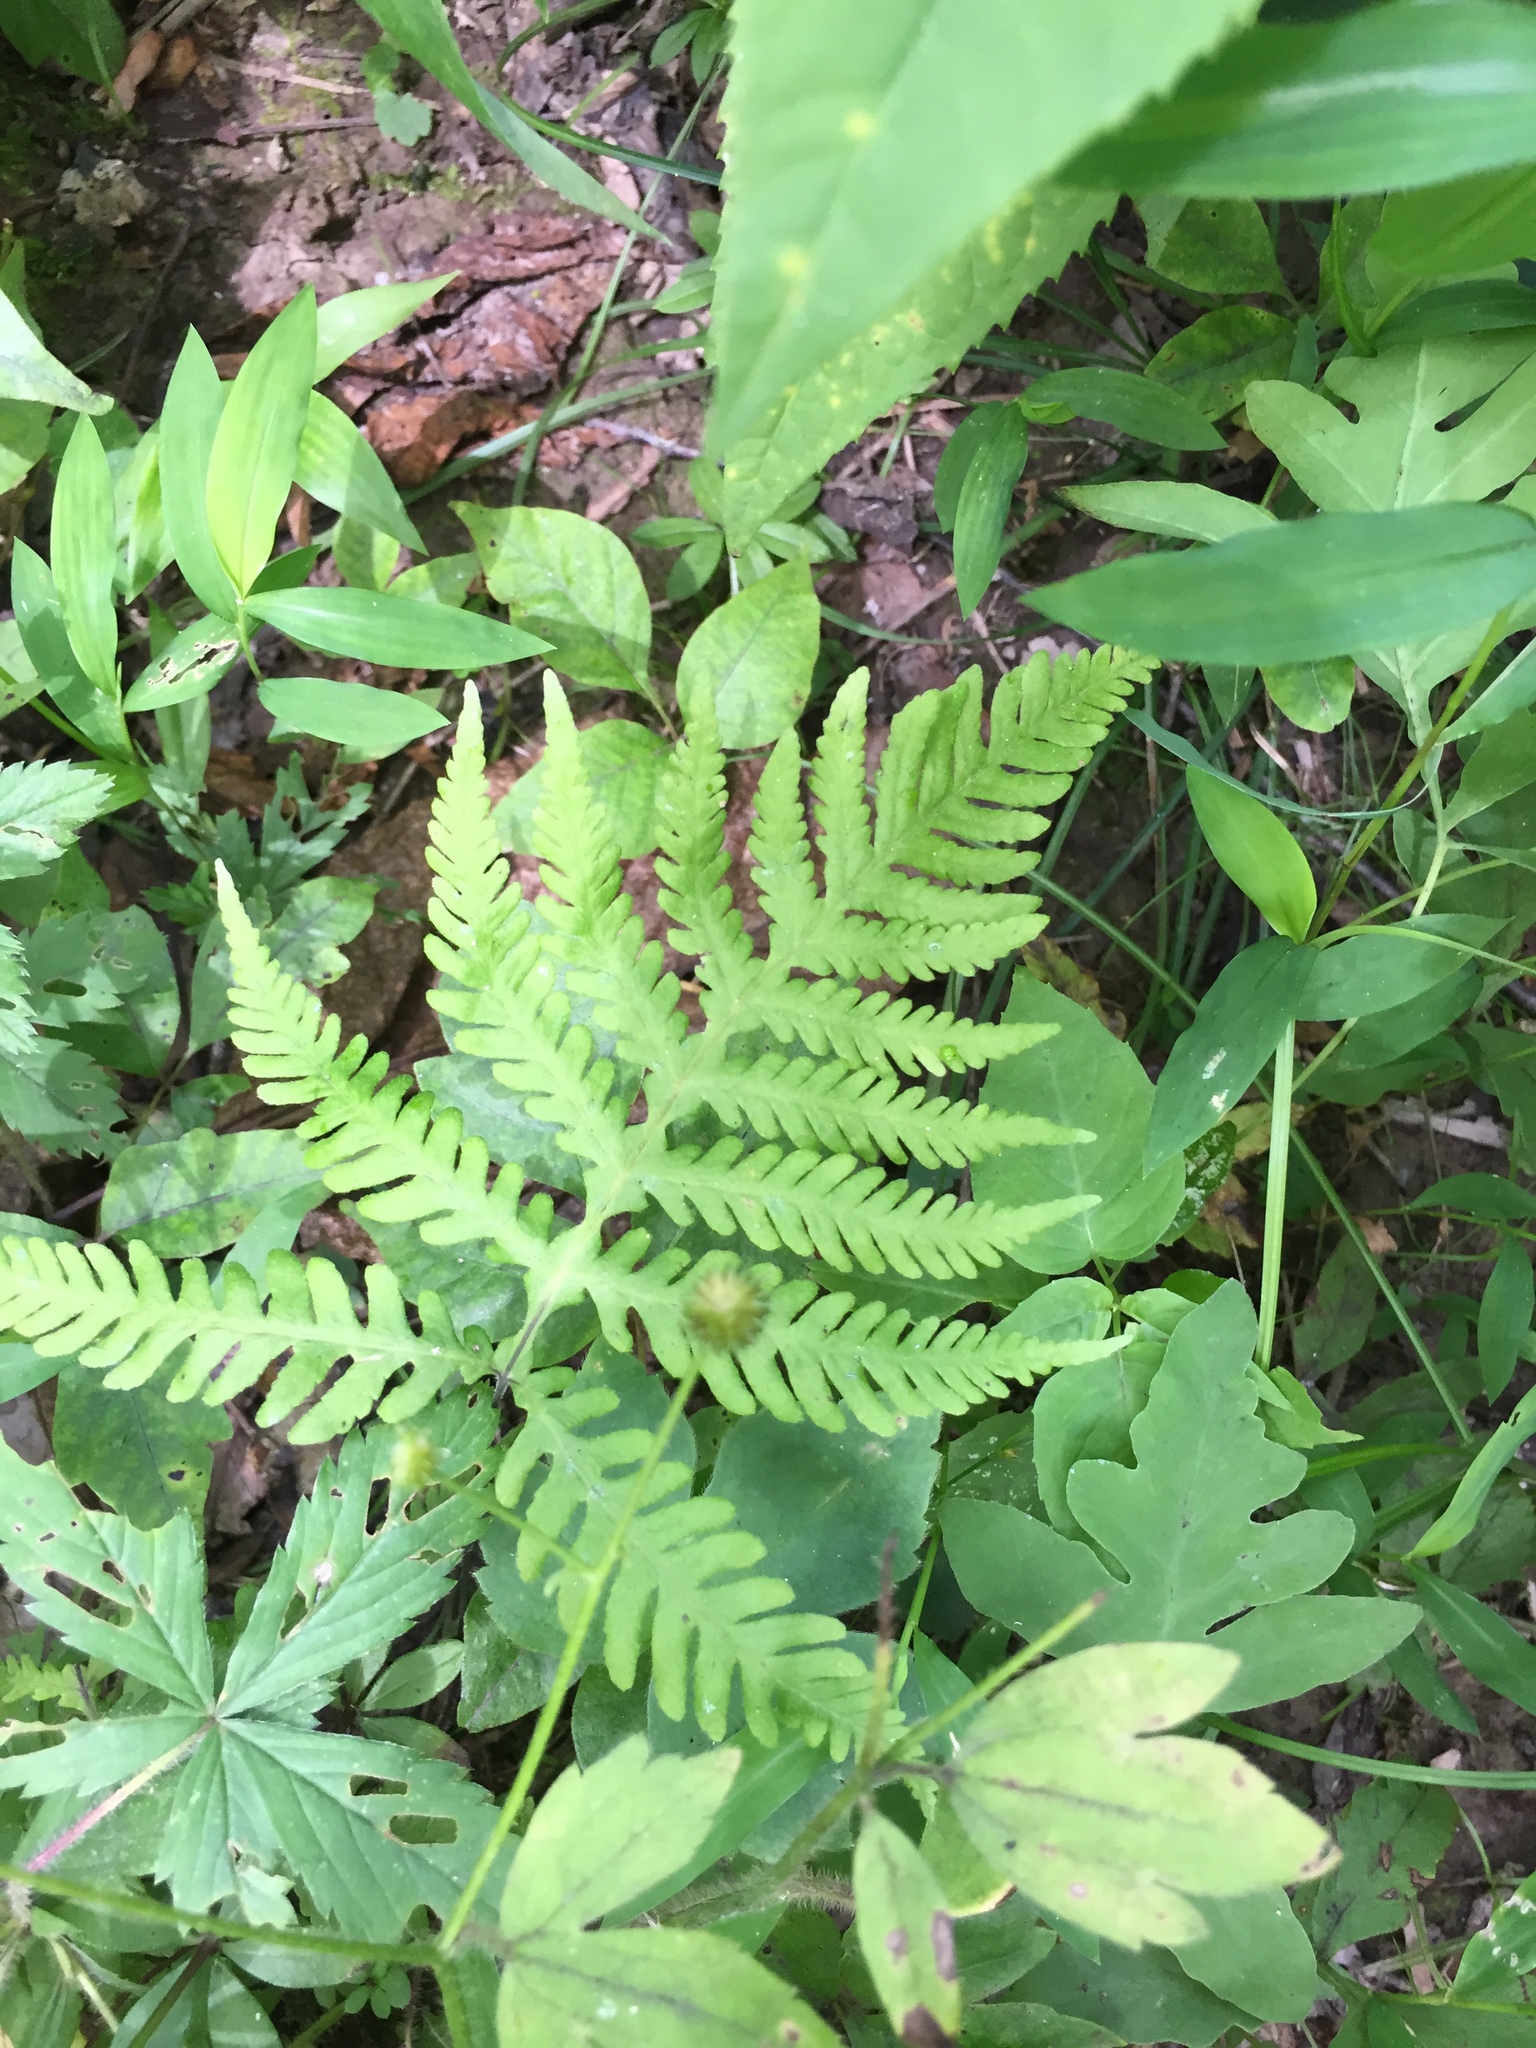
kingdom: Plantae
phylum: Tracheophyta
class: Polypodiopsida
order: Polypodiales
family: Thelypteridaceae
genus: Phegopteris
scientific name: Phegopteris hexagonoptera
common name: Broad beech fern
